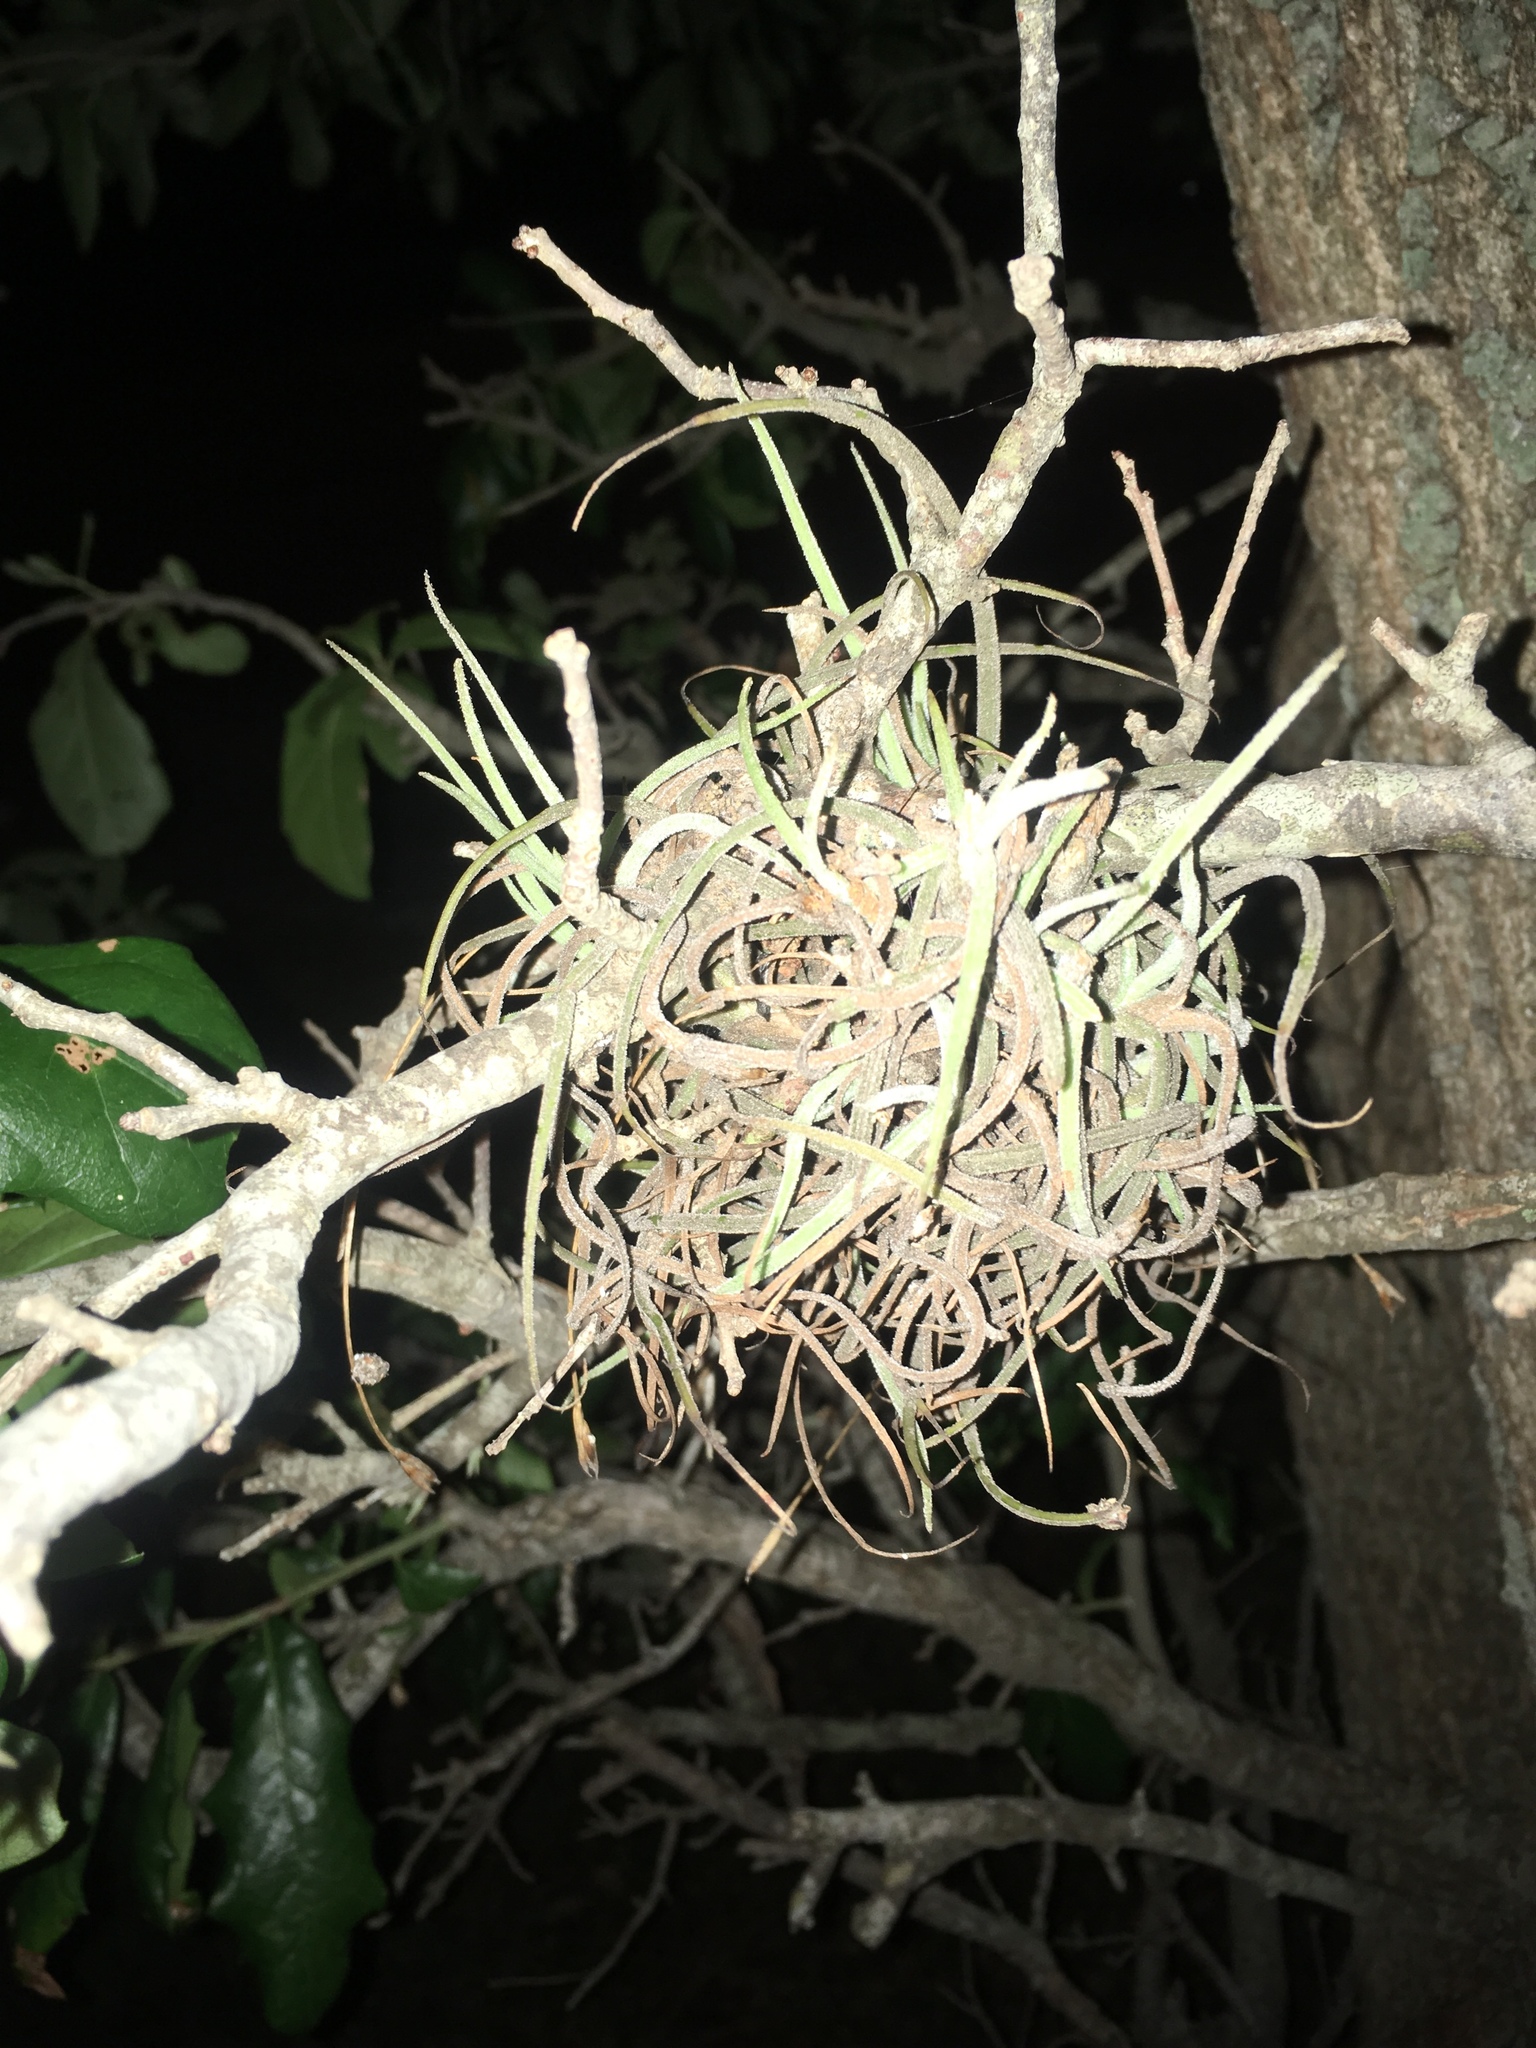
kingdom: Plantae
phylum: Tracheophyta
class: Liliopsida
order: Poales
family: Bromeliaceae
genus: Tillandsia
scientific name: Tillandsia recurvata
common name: Small ballmoss
